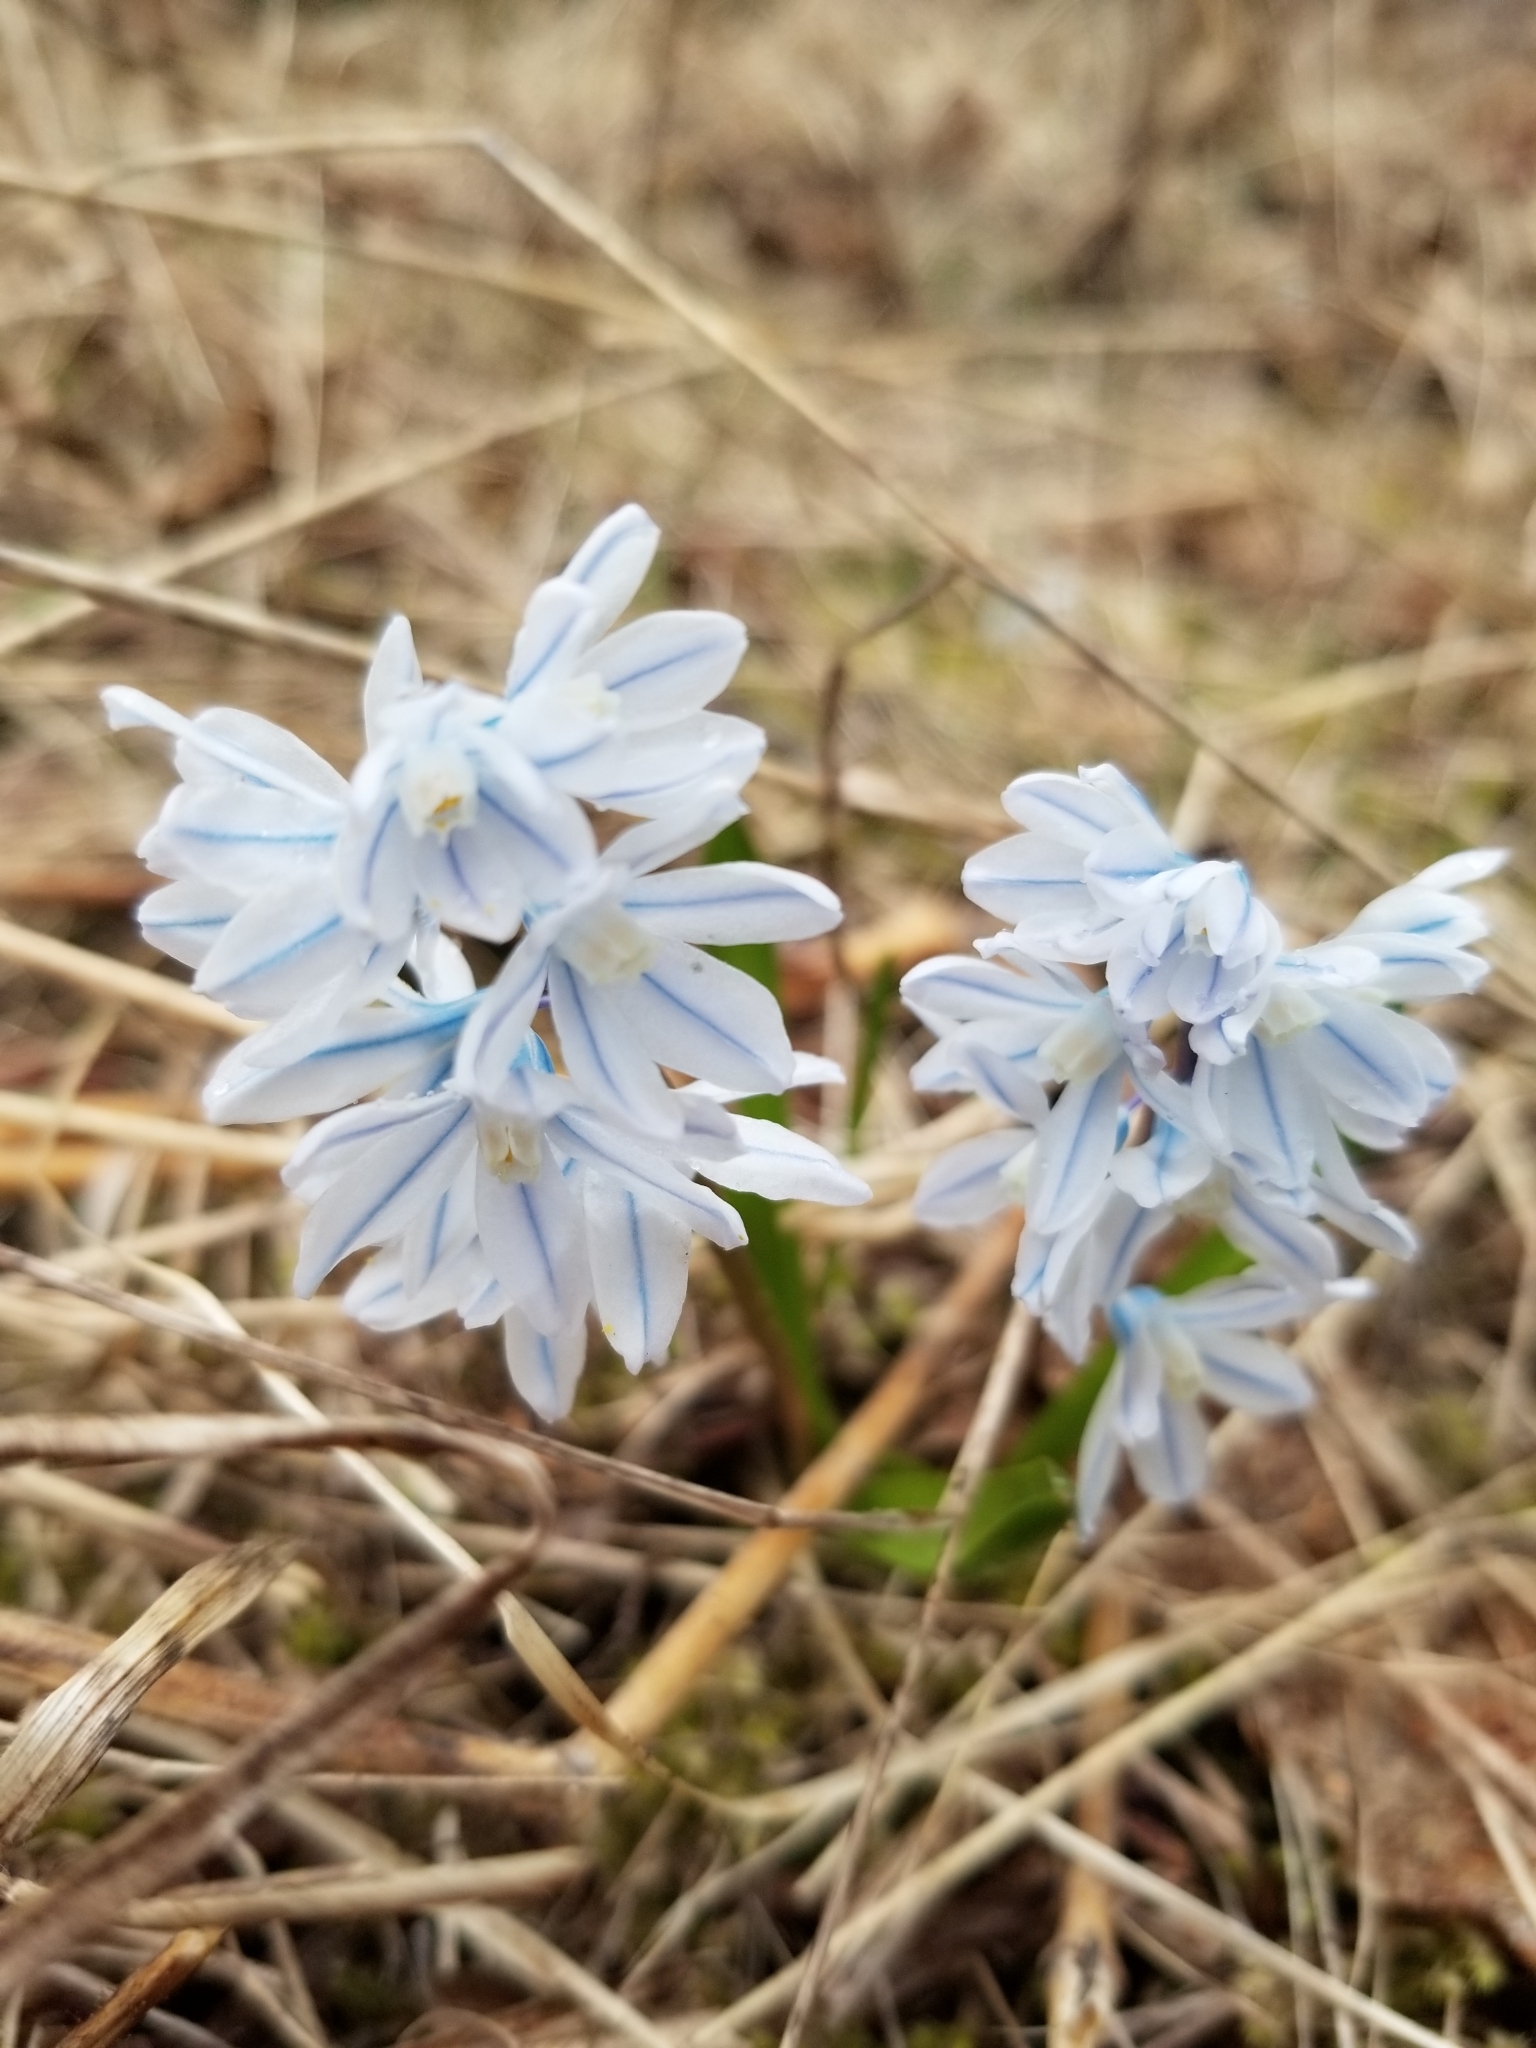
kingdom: Plantae
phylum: Tracheophyta
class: Liliopsida
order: Asparagales
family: Asparagaceae
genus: Puschkinia
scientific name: Puschkinia scilloides
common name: Striped squill
